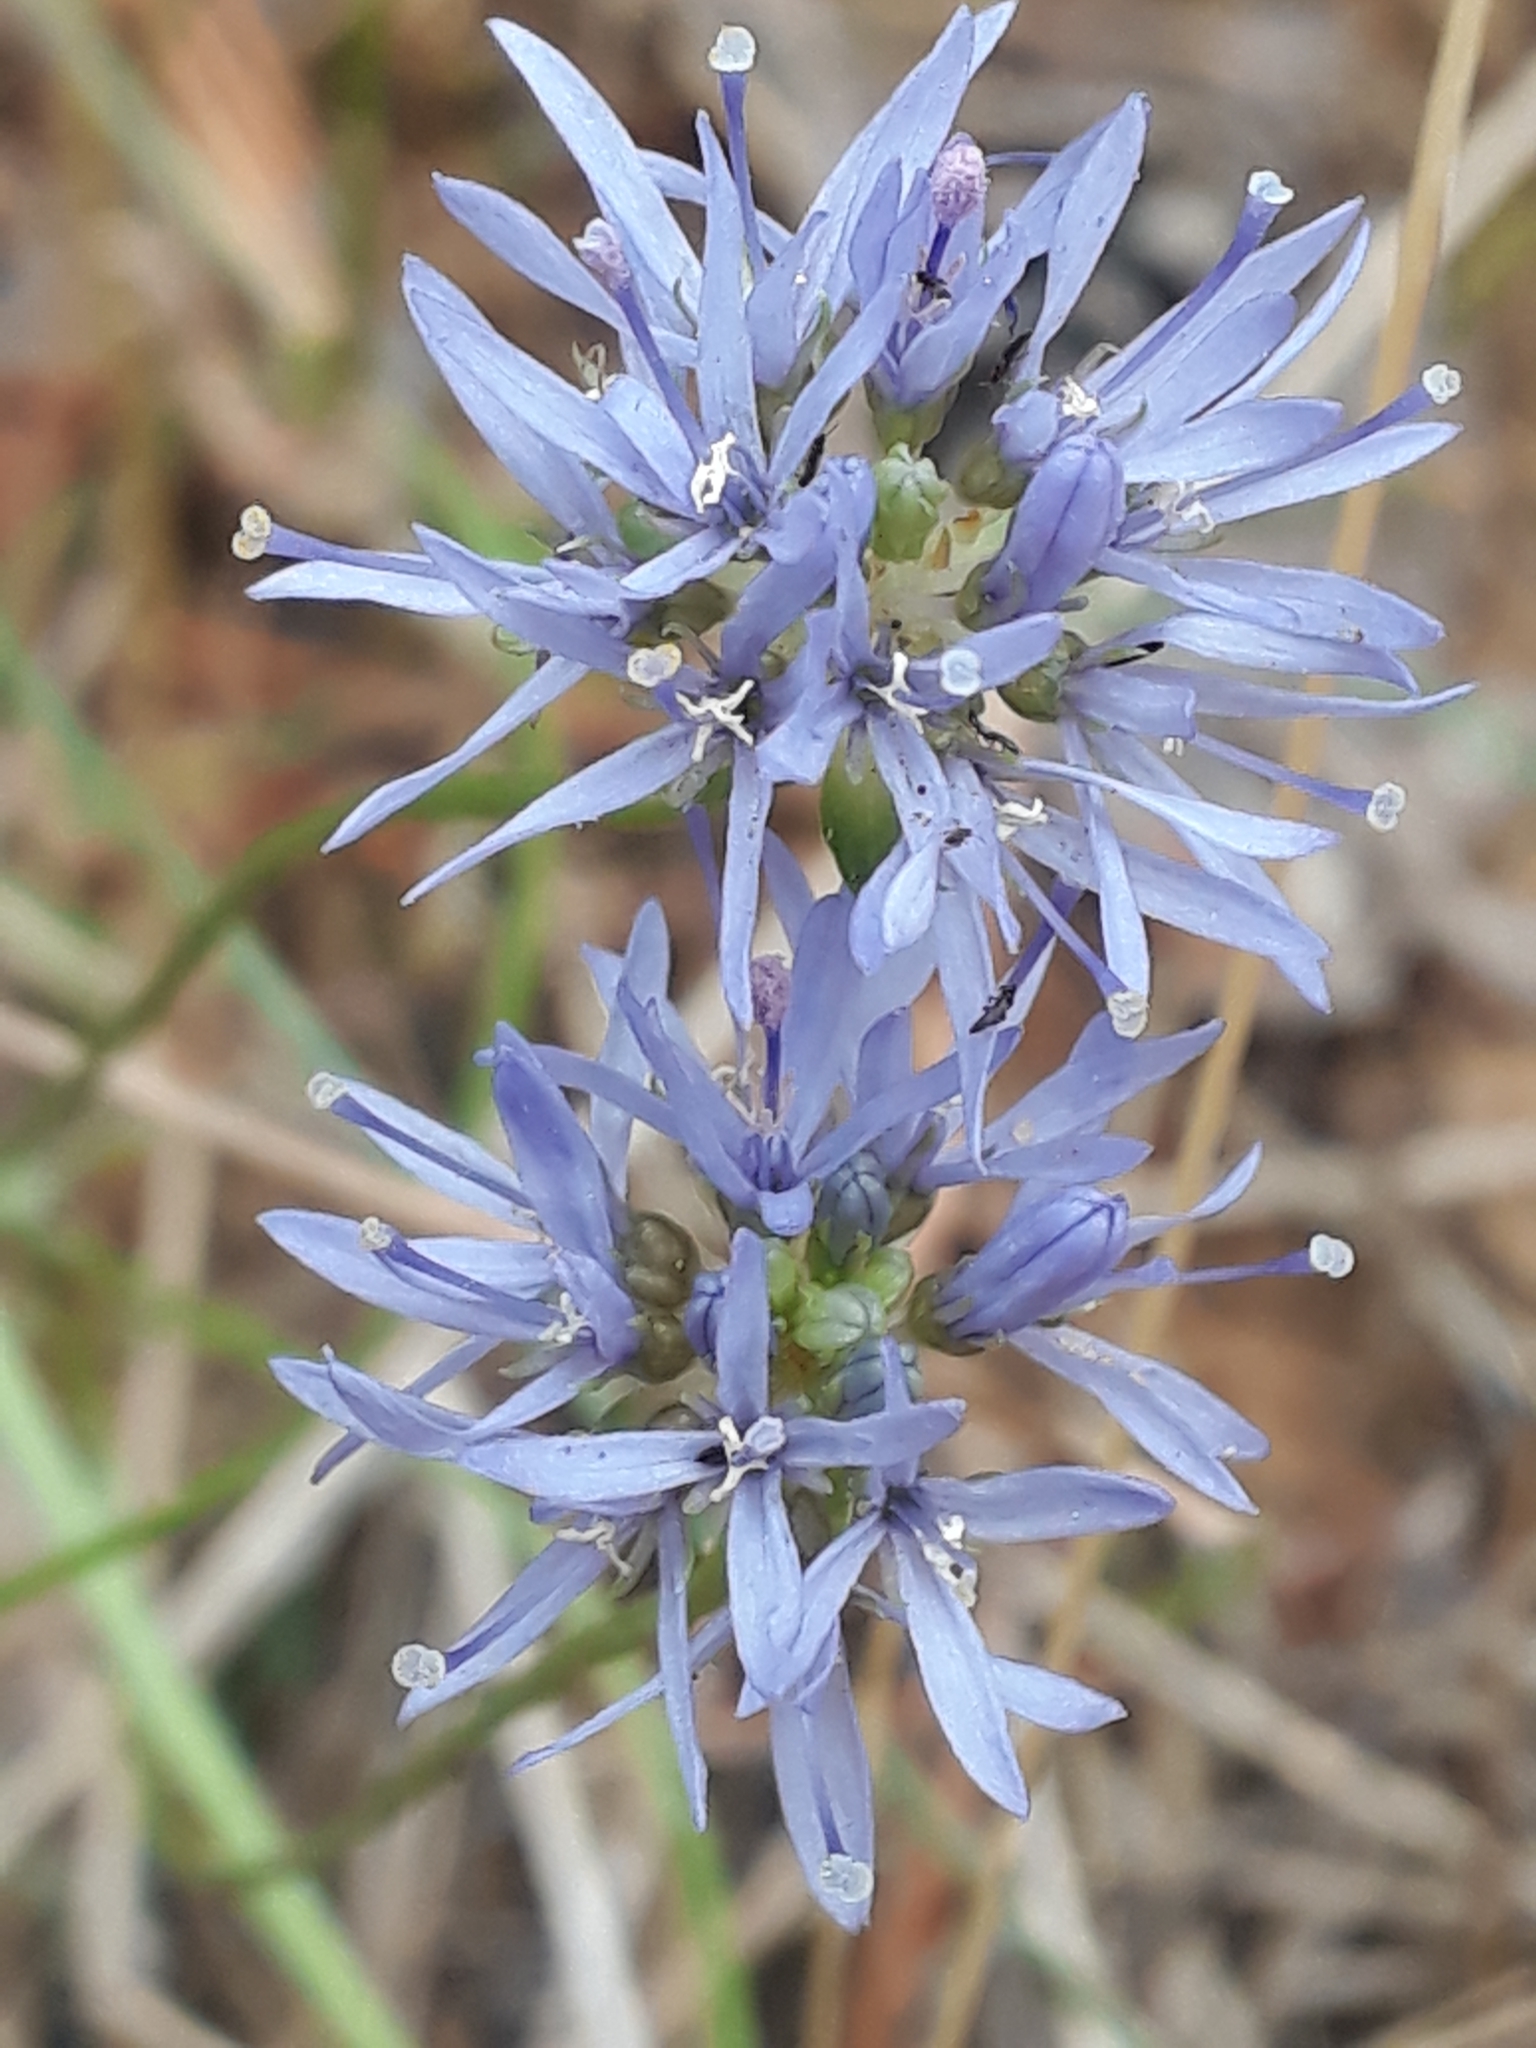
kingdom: Plantae
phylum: Tracheophyta
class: Magnoliopsida
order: Asterales
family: Campanulaceae
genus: Jasione
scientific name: Jasione montana
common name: Sheep's-bit
